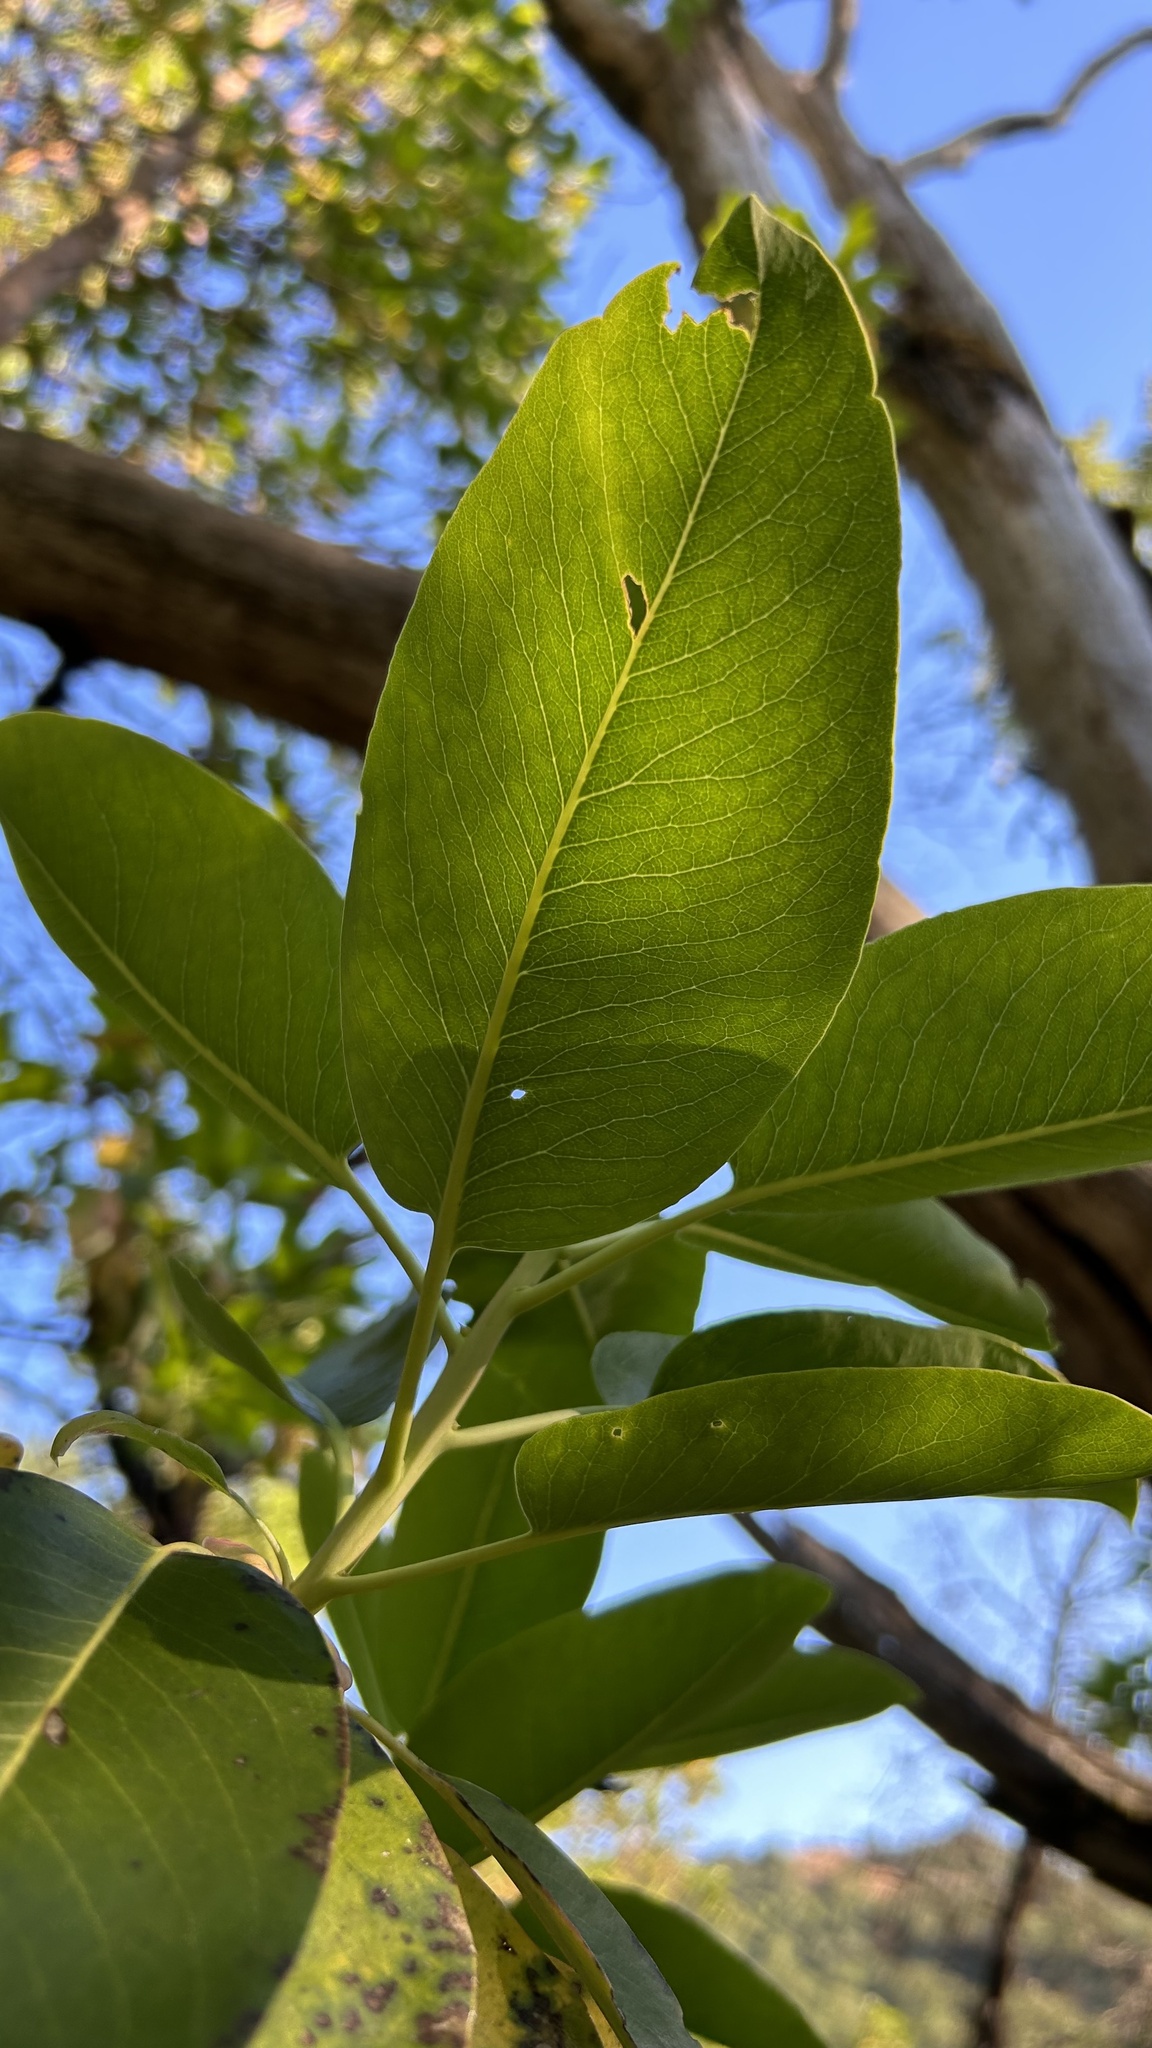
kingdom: Plantae
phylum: Tracheophyta
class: Magnoliopsida
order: Ericales
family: Ericaceae
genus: Arbutus
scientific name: Arbutus menziesii
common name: Pacific madrone
